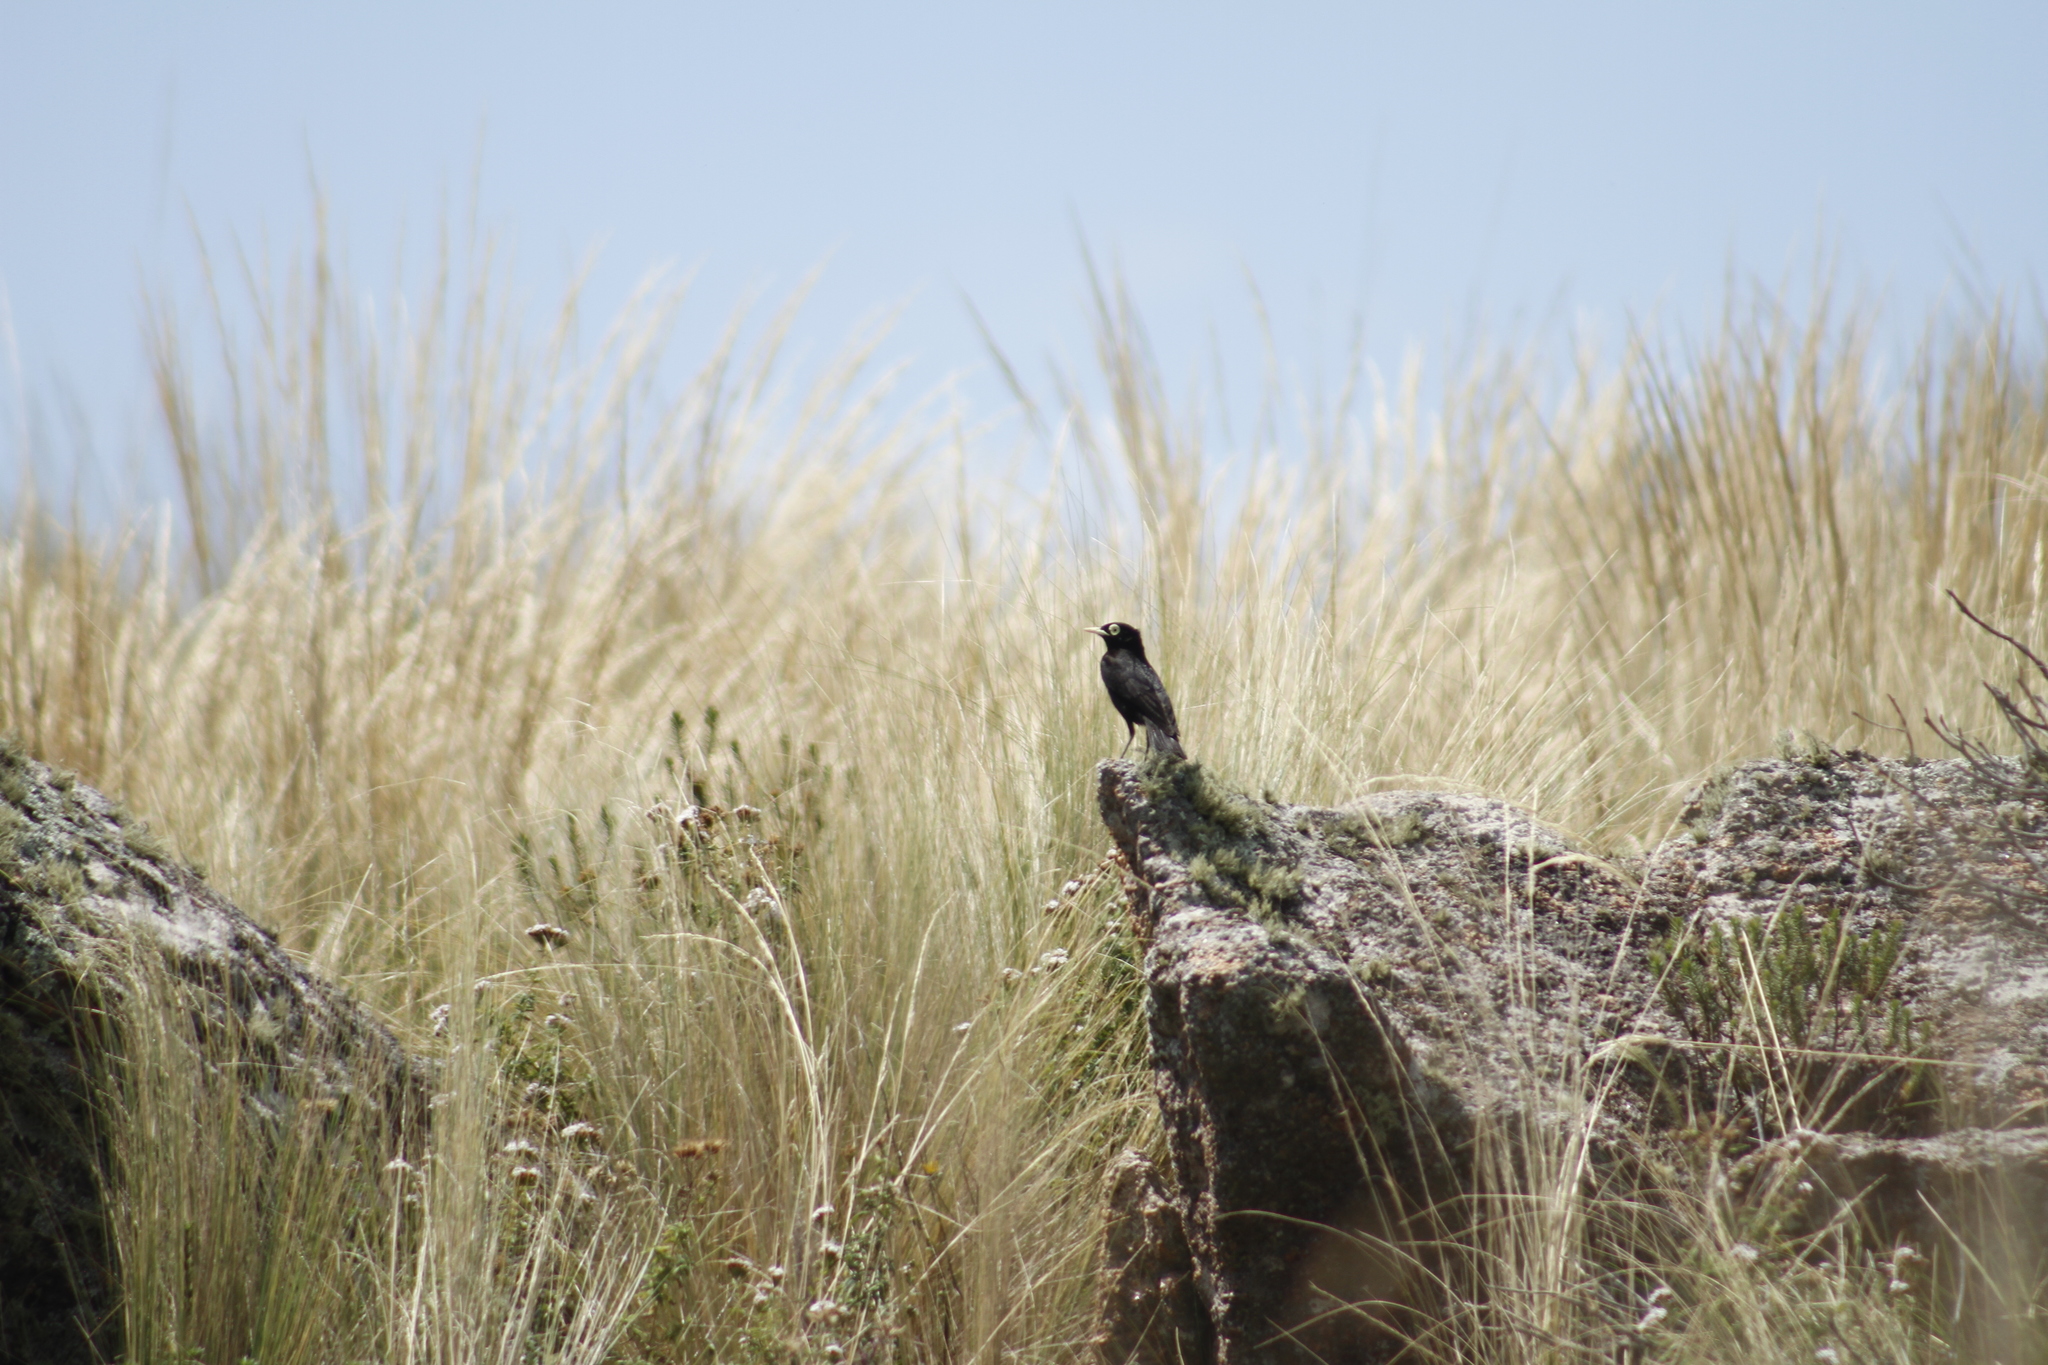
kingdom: Animalia
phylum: Chordata
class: Aves
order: Passeriformes
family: Tyrannidae
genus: Hymenops
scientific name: Hymenops perspicillatus
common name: Spectacled tyrant
